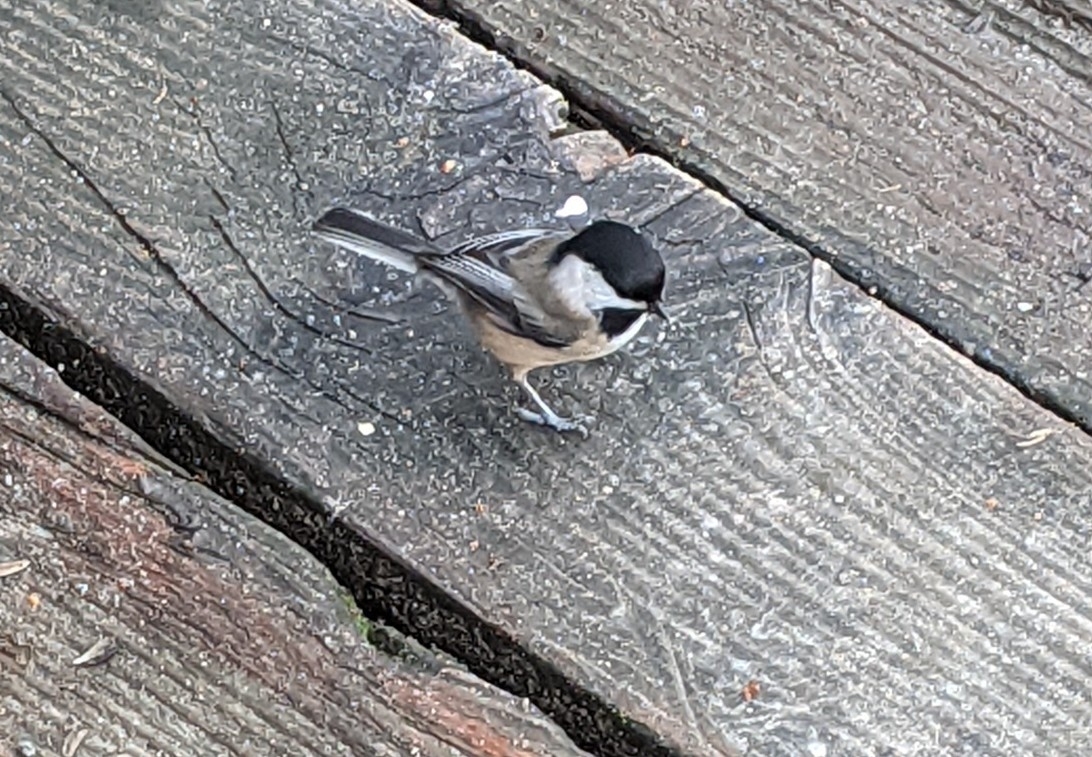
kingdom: Animalia
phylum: Chordata
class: Aves
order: Passeriformes
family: Paridae
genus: Poecile
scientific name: Poecile atricapillus
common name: Black-capped chickadee
